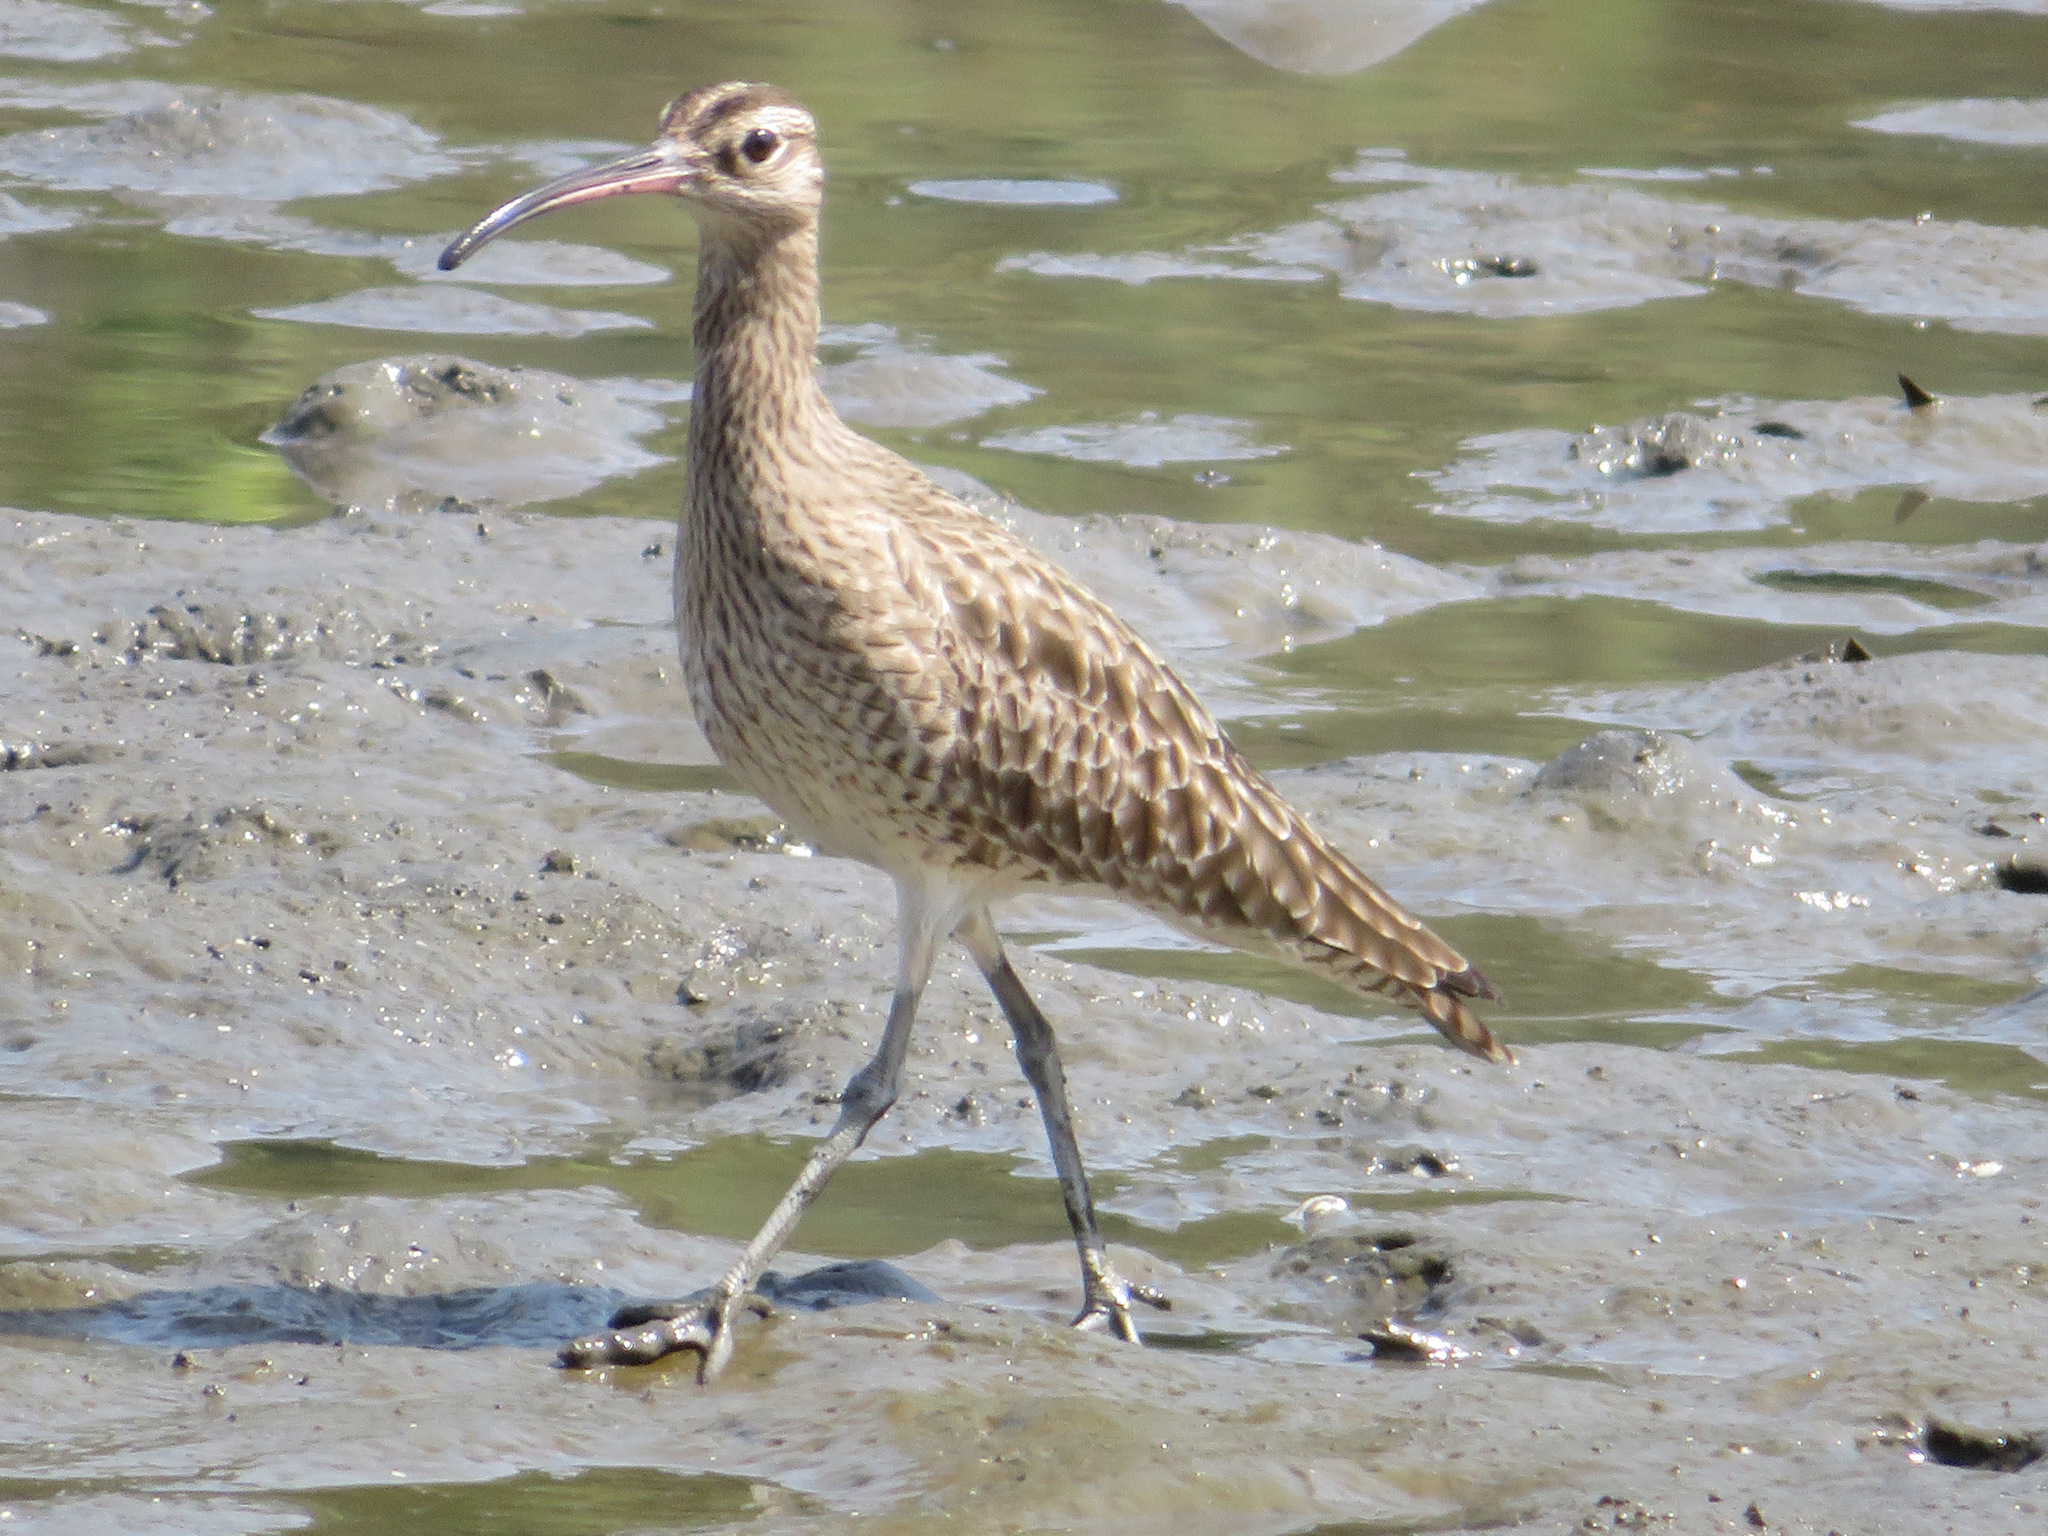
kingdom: Animalia
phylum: Chordata
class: Aves
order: Charadriiformes
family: Scolopacidae
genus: Numenius
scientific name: Numenius phaeopus
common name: Whimbrel
